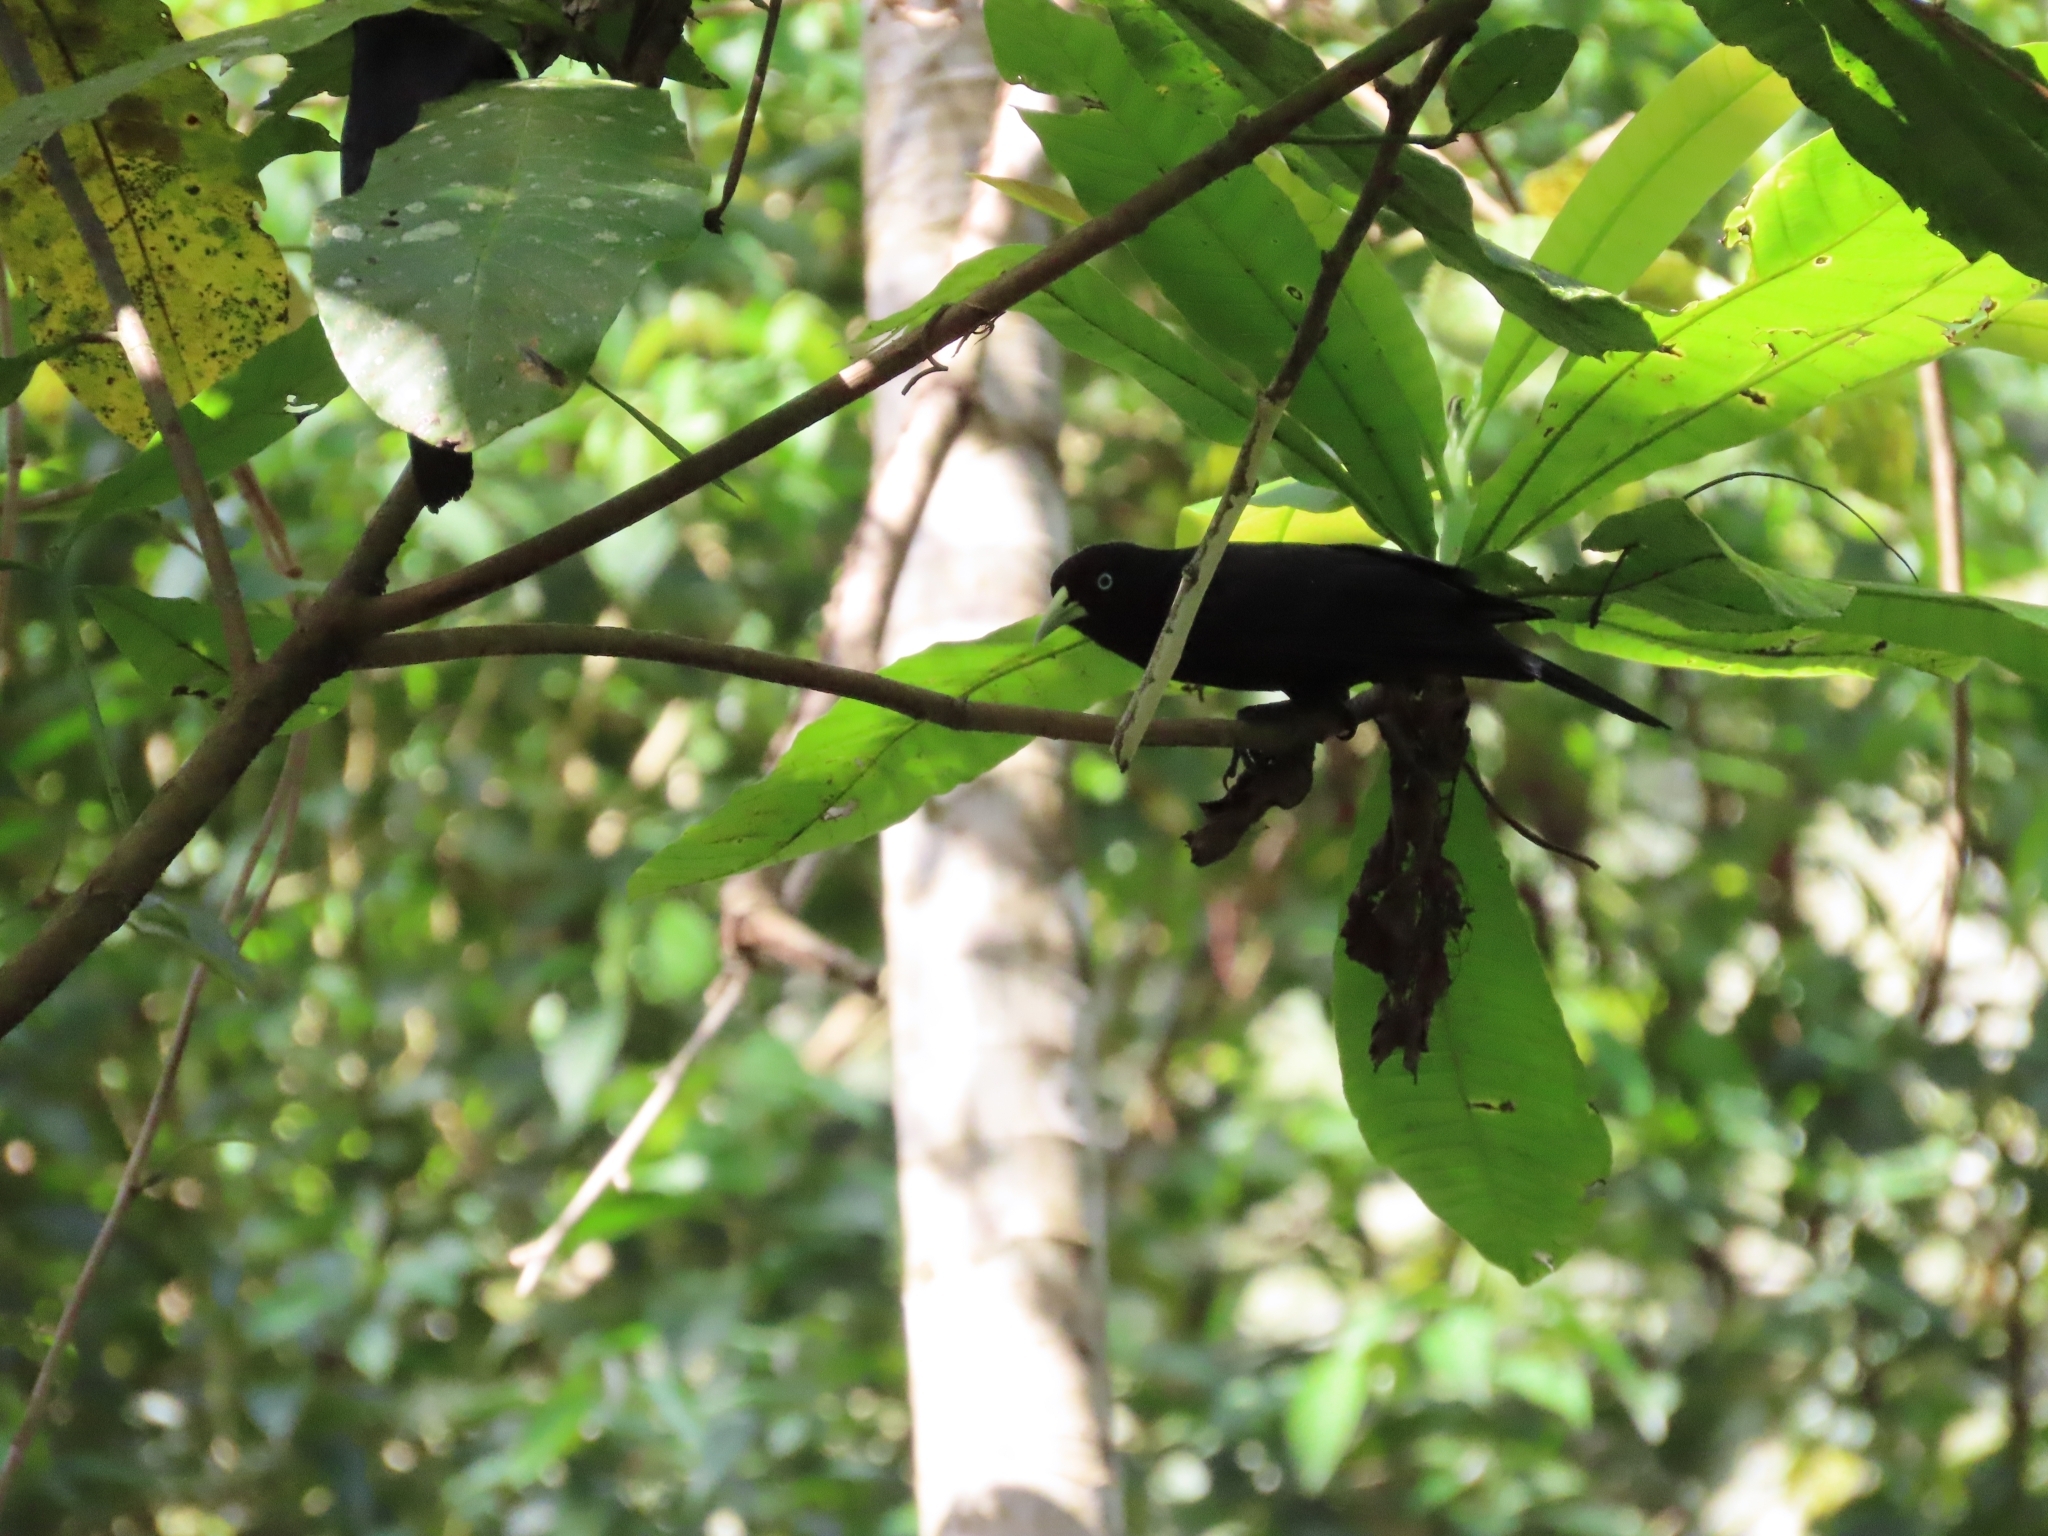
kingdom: Animalia
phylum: Chordata
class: Aves
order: Passeriformes
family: Icteridae
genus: Cacicus
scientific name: Cacicus uropygialis
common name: Scarlet-rumped cacique
